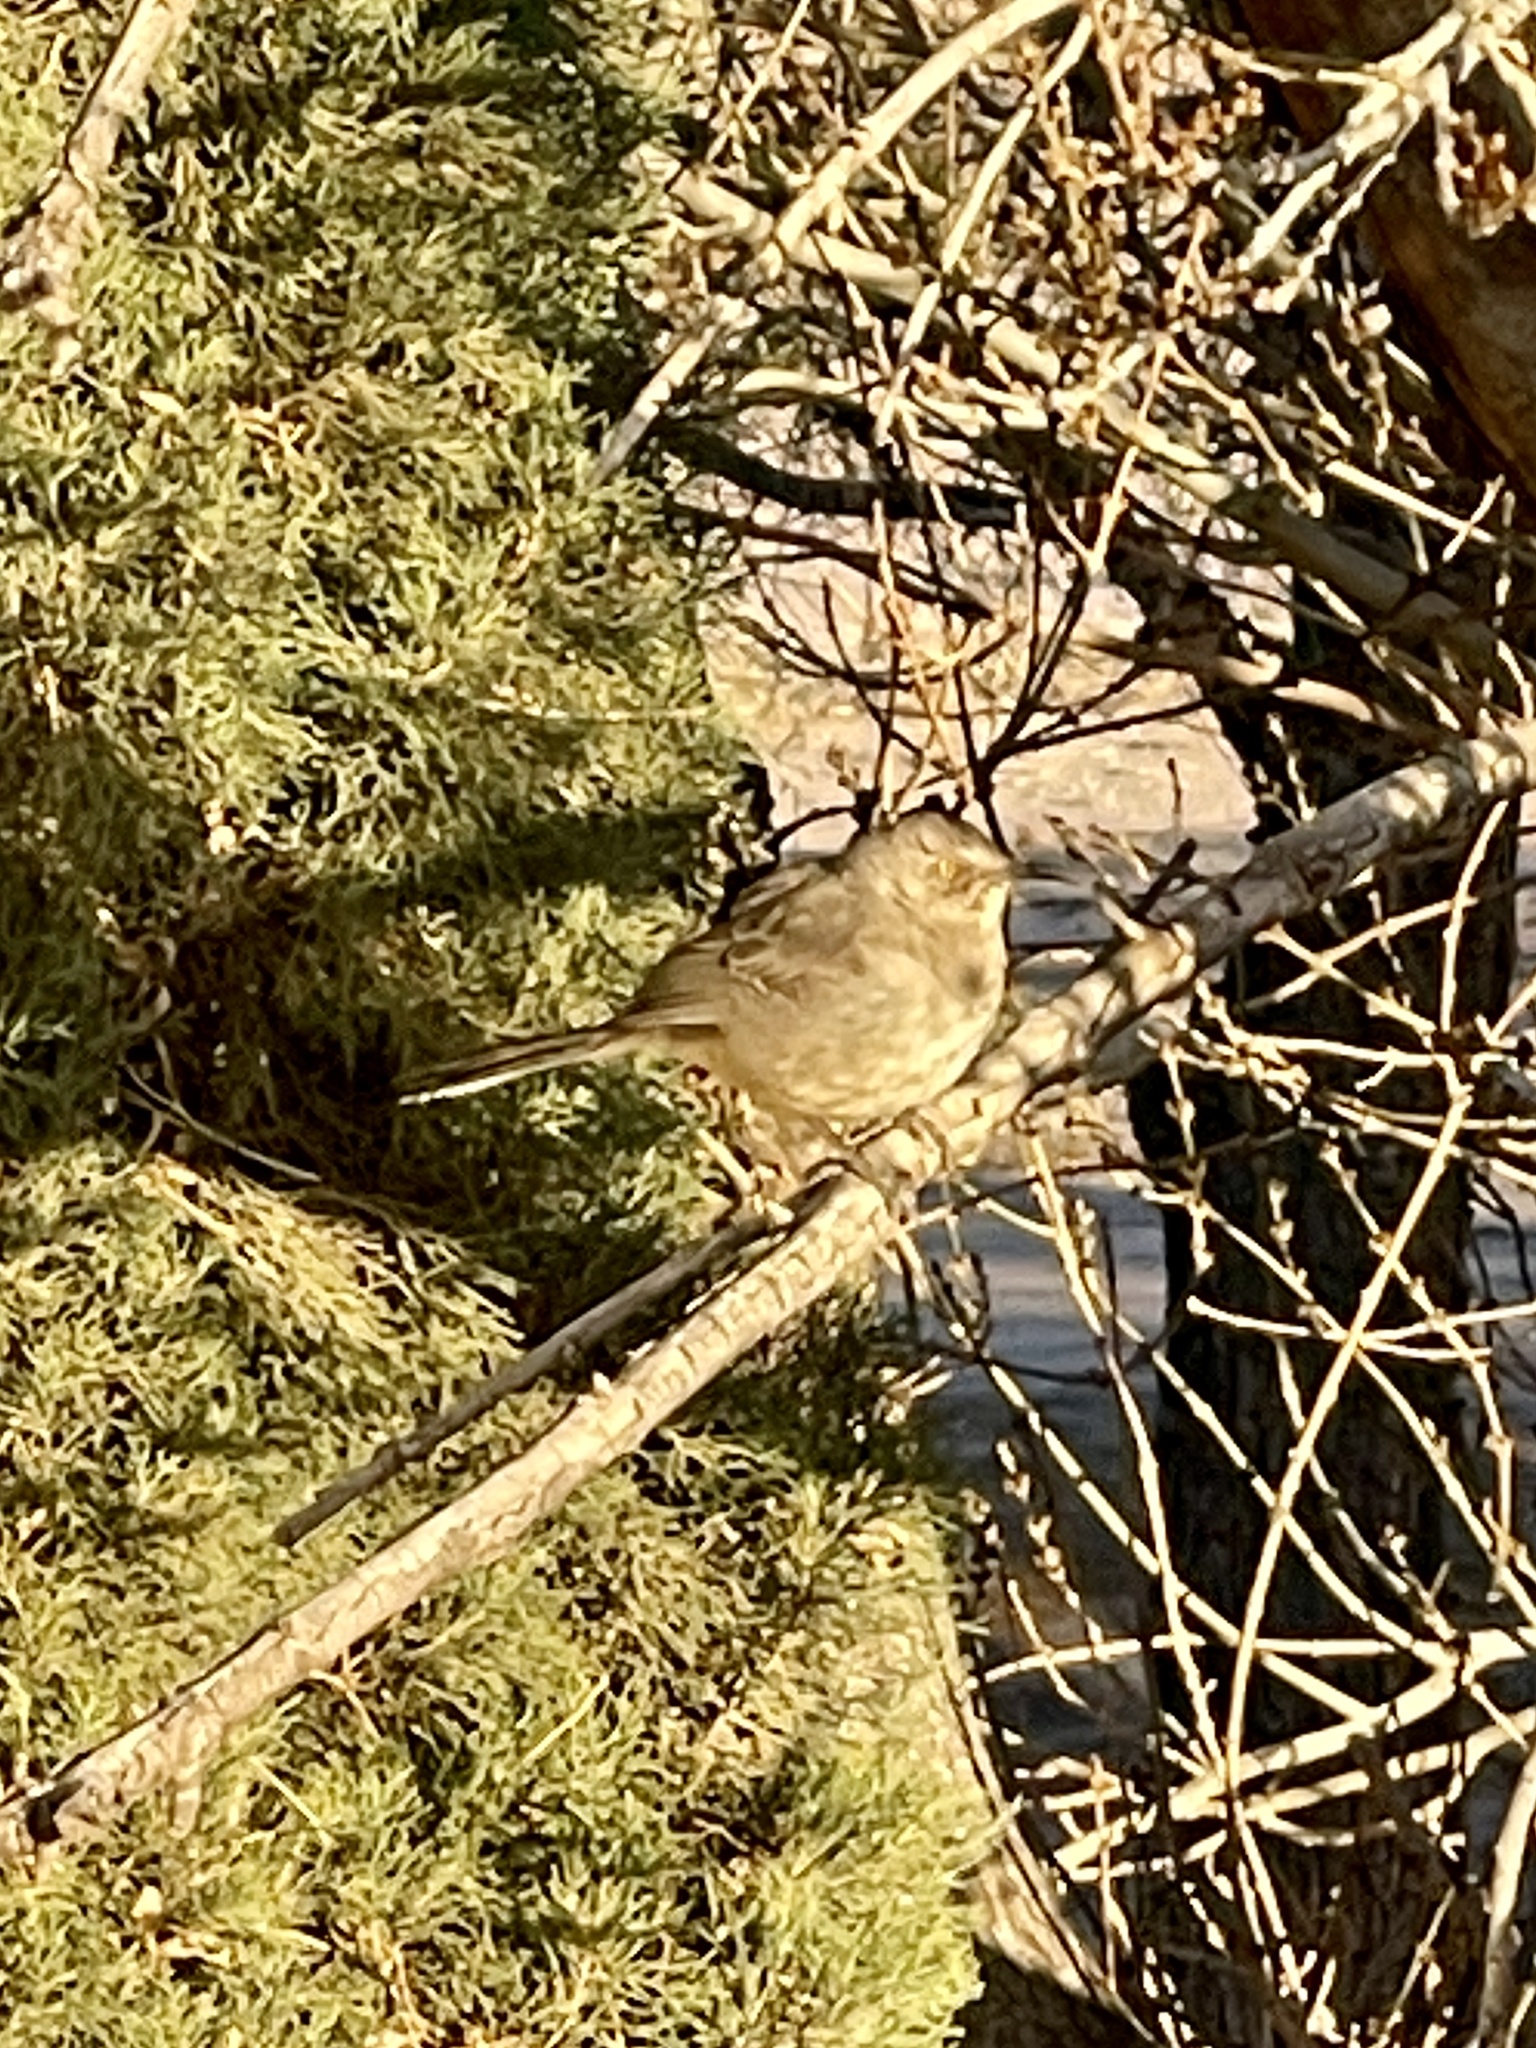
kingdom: Animalia
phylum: Chordata
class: Aves
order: Passeriformes
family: Mimidae
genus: Toxostoma
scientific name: Toxostoma curvirostre
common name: Curve-billed thrasher
